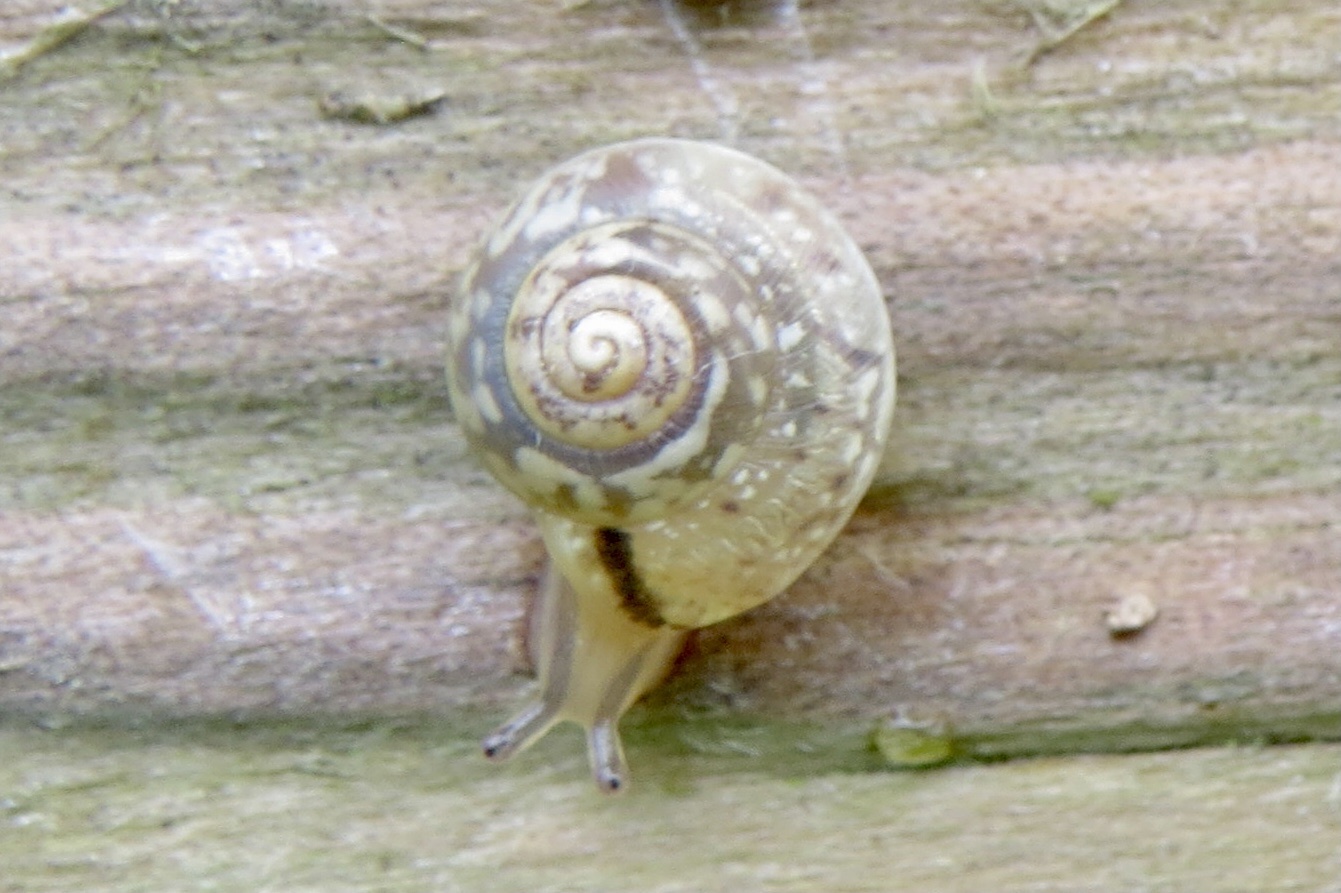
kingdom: Animalia
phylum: Mollusca
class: Gastropoda
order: Stylommatophora
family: Hygromiidae
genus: Hygromia
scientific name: Hygromia cinctella
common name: Girdled snail
